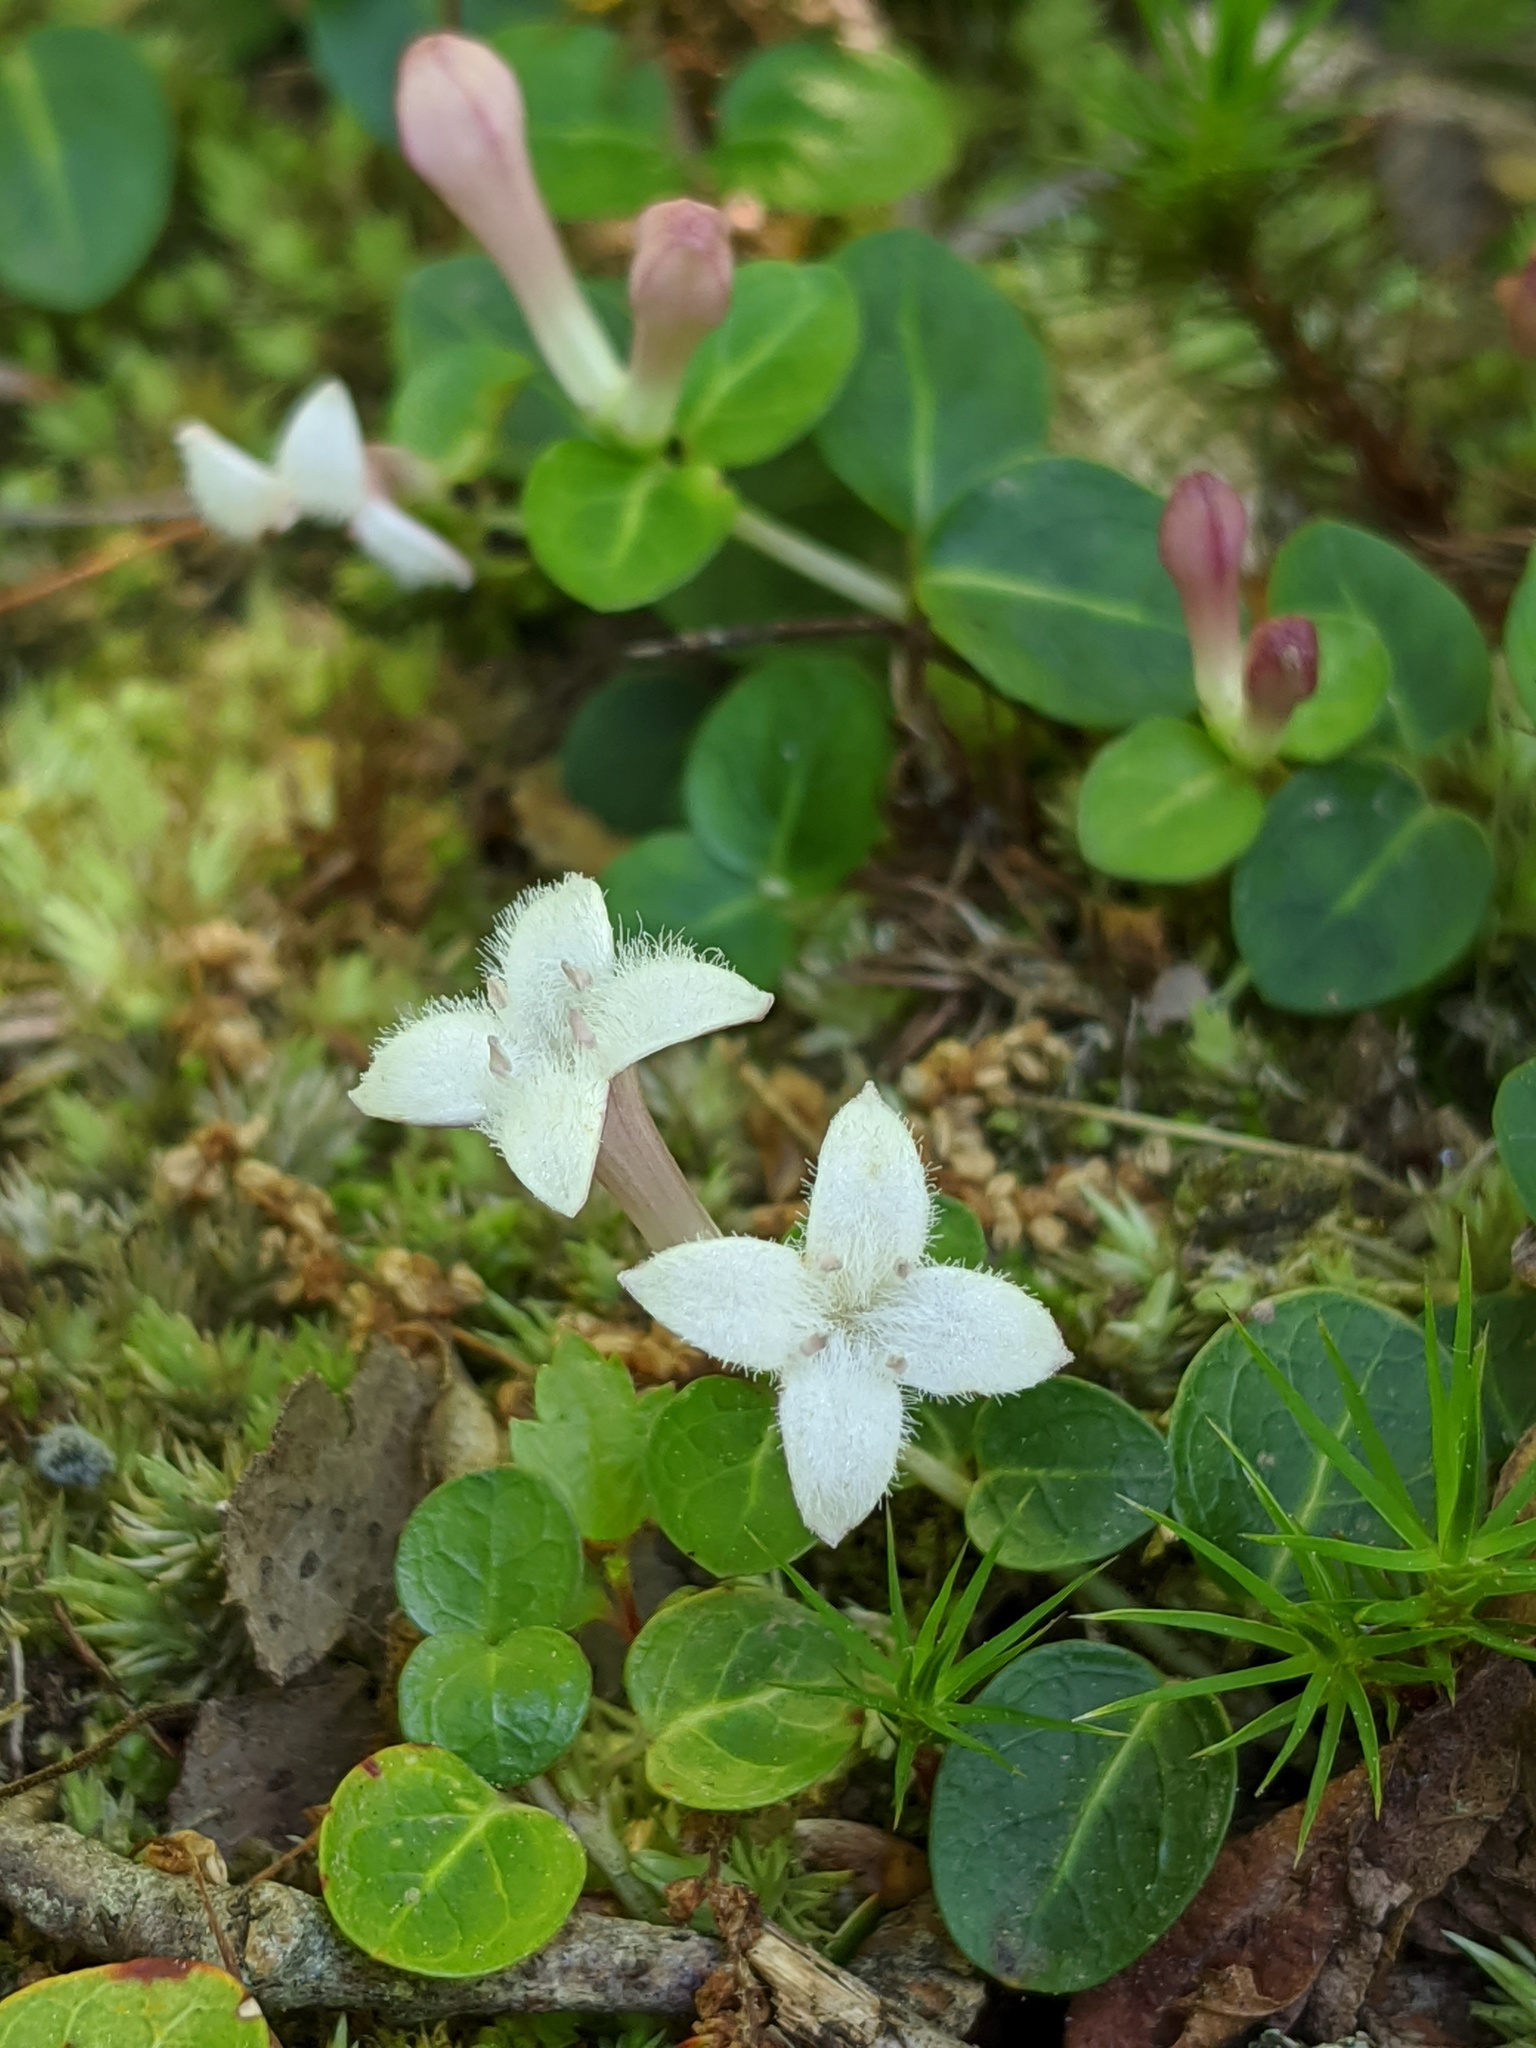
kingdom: Plantae
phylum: Tracheophyta
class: Magnoliopsida
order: Gentianales
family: Rubiaceae
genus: Mitchella
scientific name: Mitchella repens
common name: Partridge-berry
